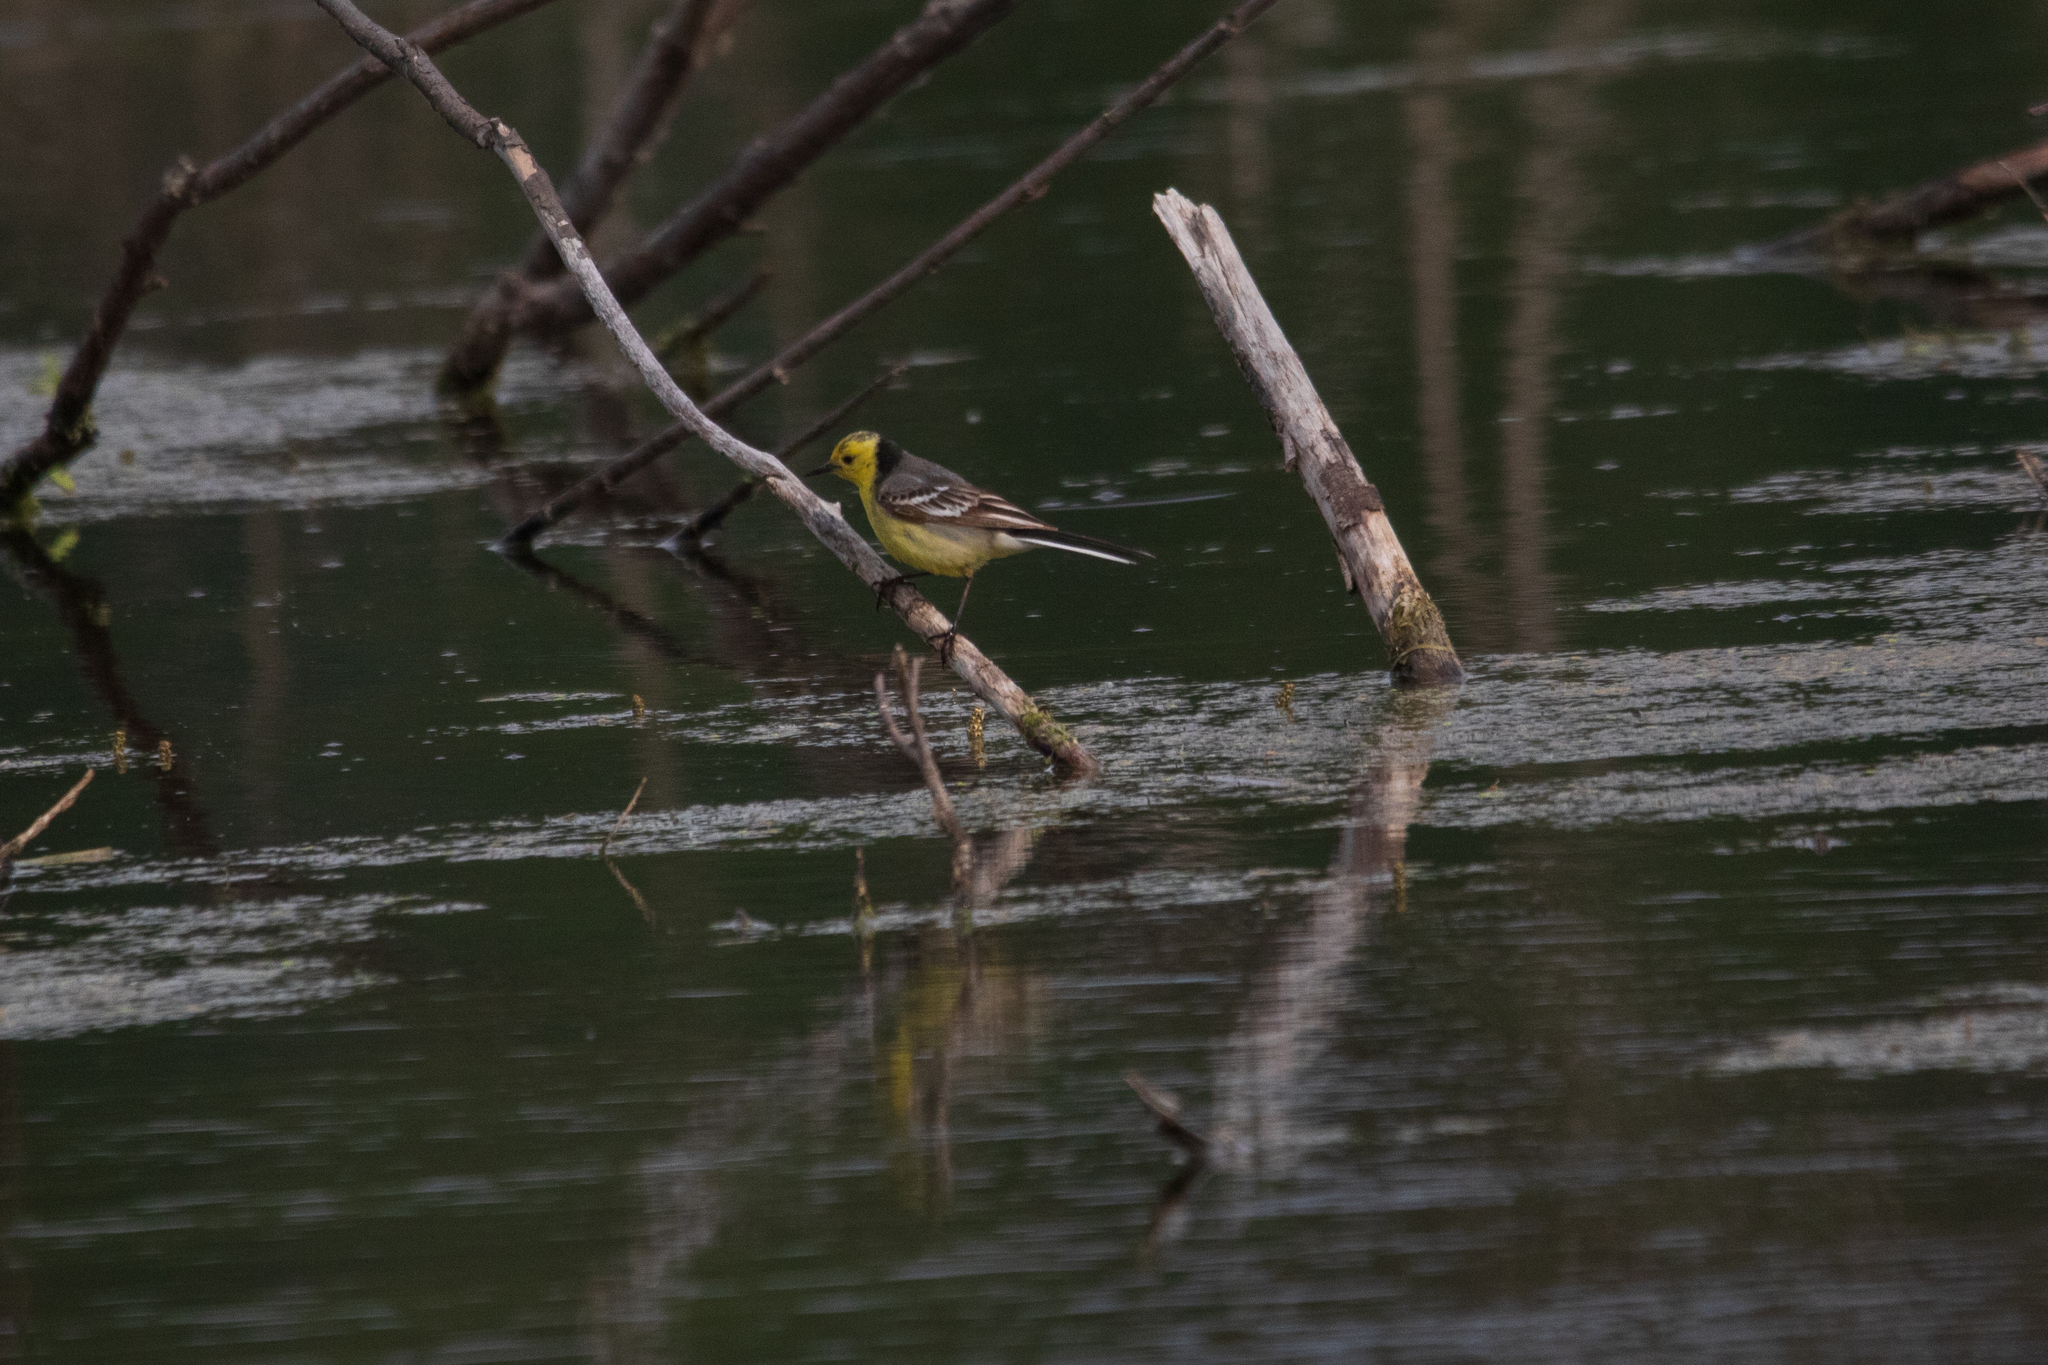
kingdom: Animalia
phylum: Chordata
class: Aves
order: Passeriformes
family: Motacillidae
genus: Motacilla
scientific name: Motacilla citreola
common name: Citrine wagtail
